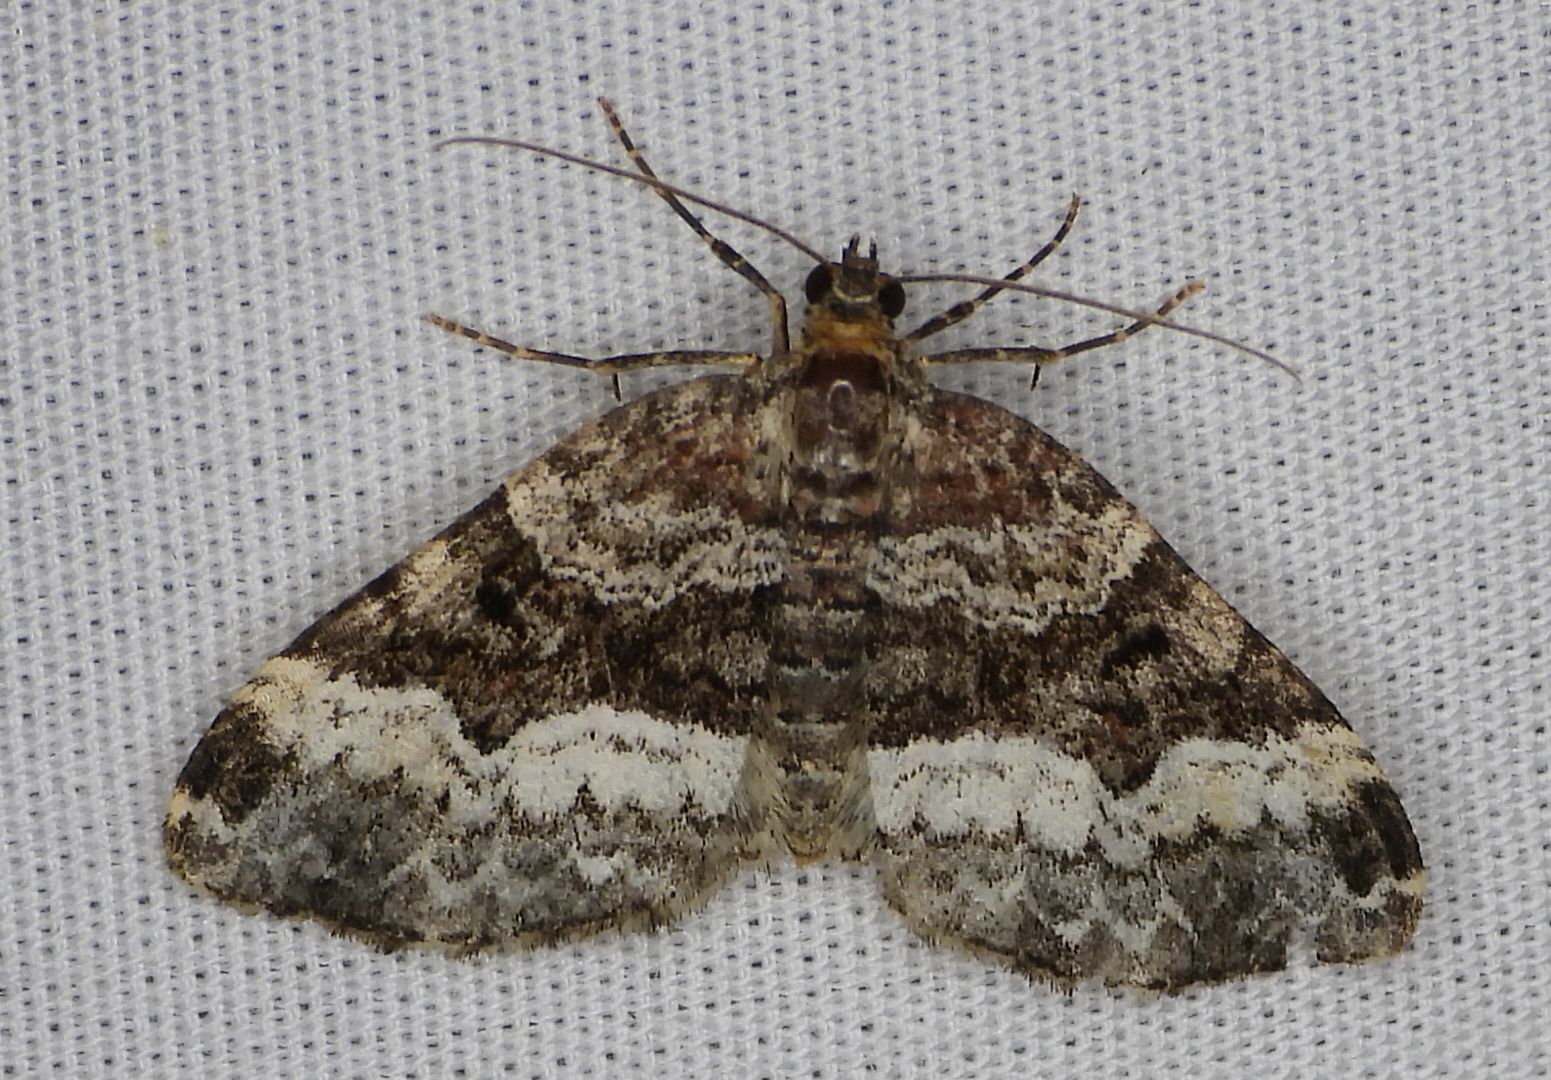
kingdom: Animalia
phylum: Arthropoda
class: Insecta
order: Lepidoptera
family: Geometridae
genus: Euphyia
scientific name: Euphyia intermediata
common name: Sharp-angled carpet
